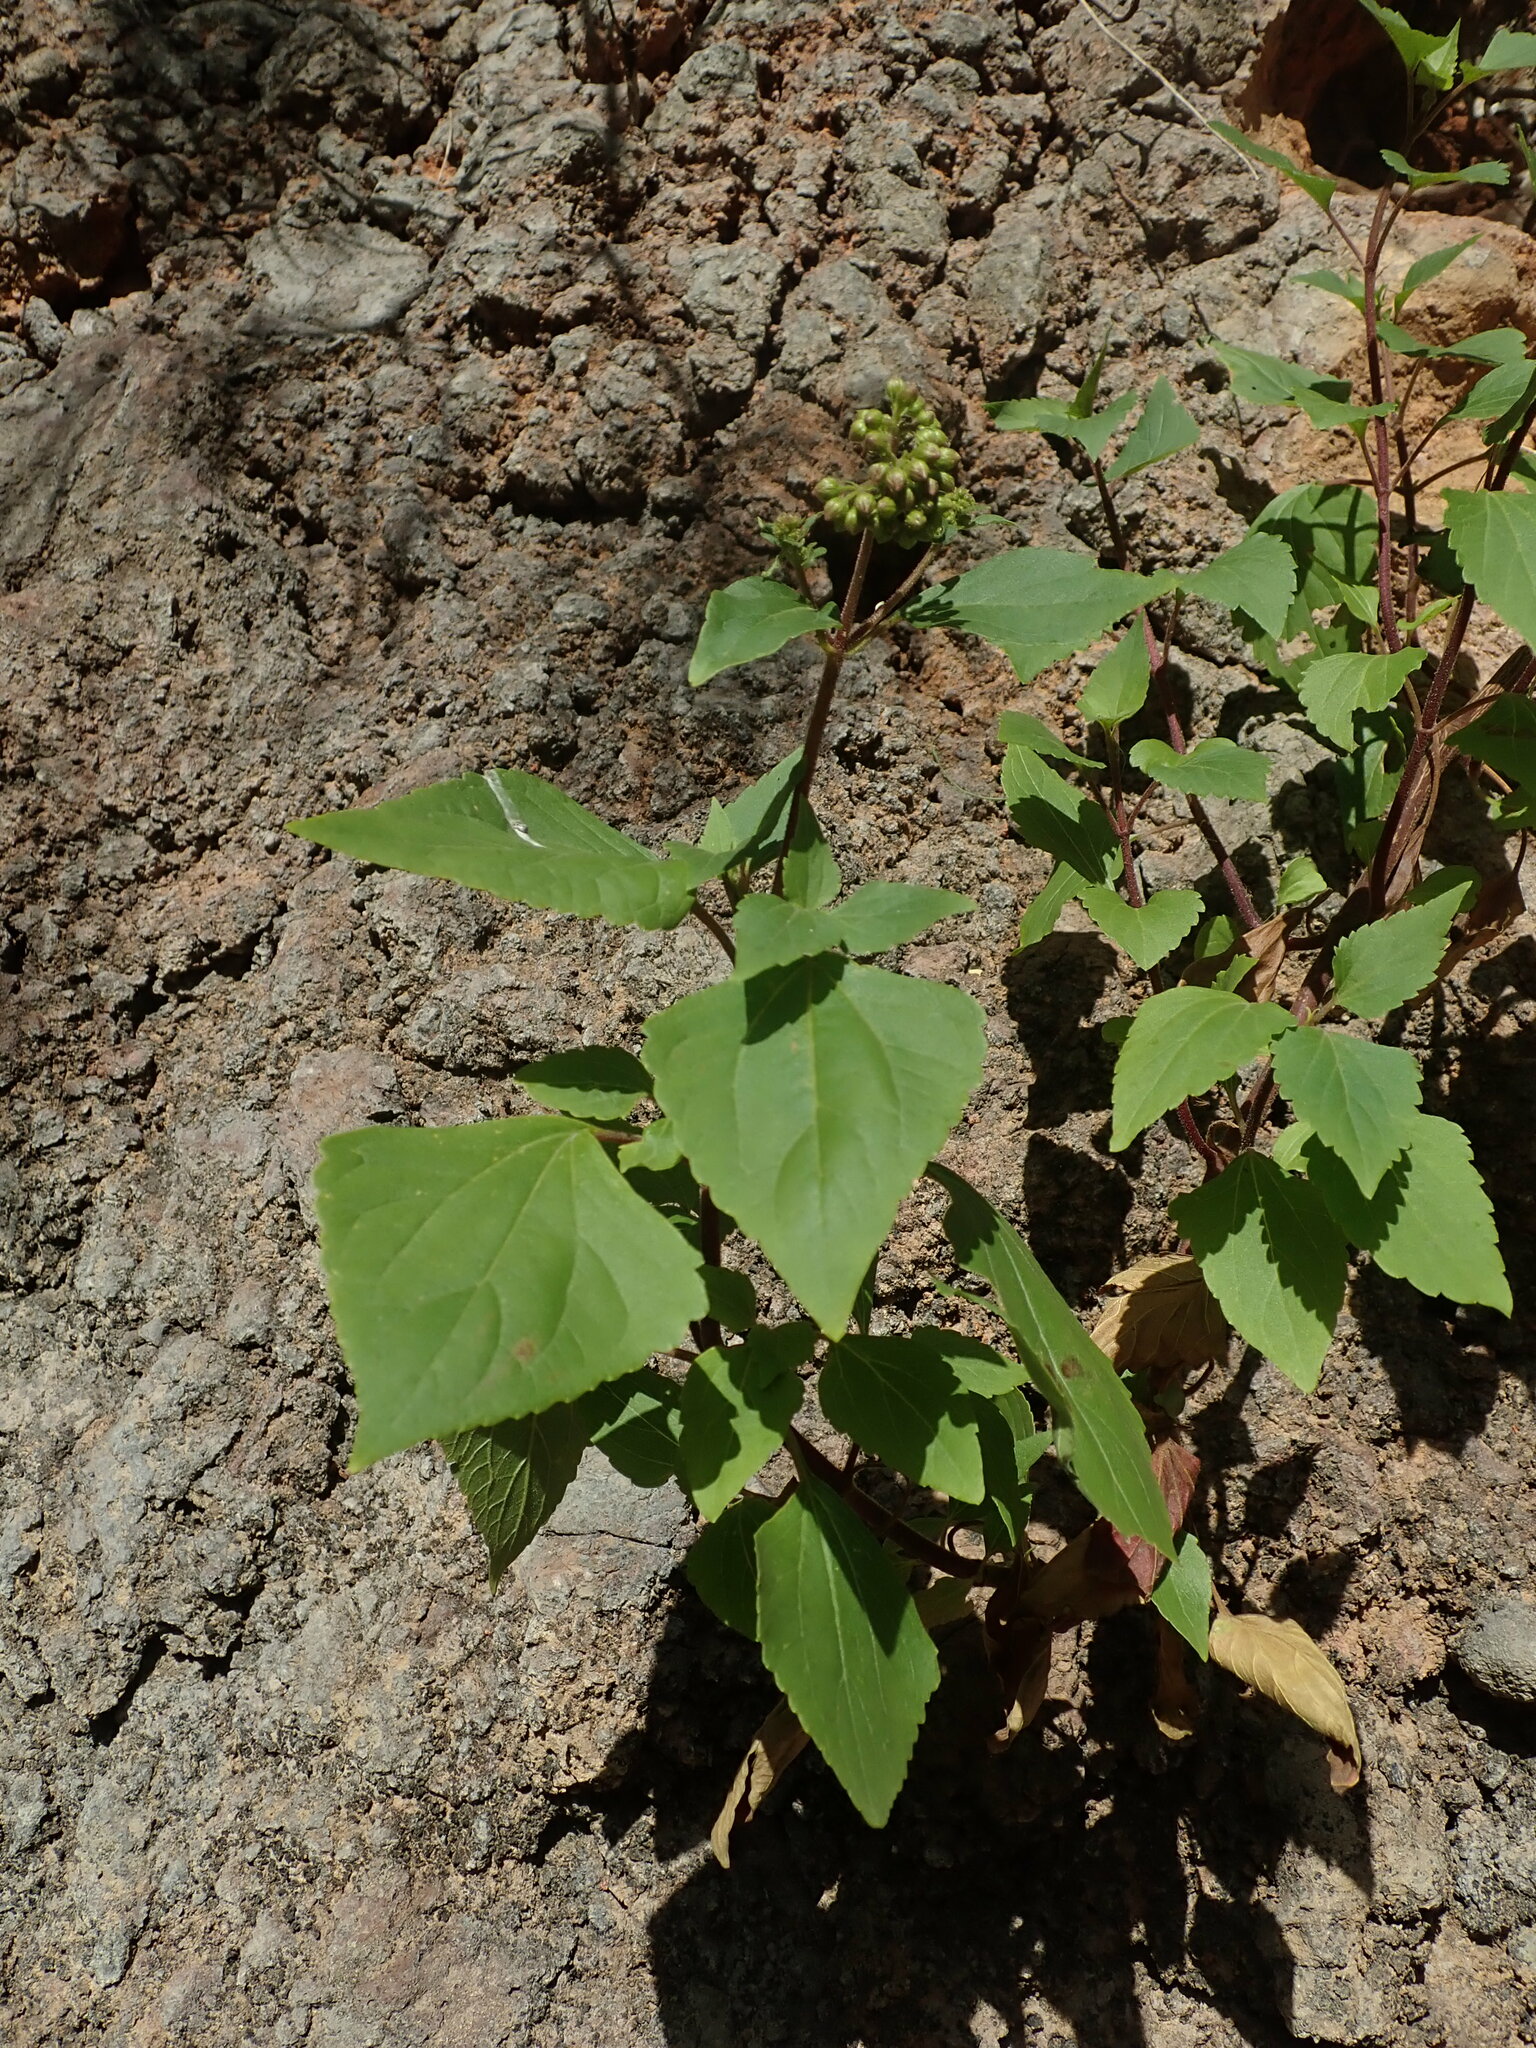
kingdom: Plantae
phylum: Tracheophyta
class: Magnoliopsida
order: Asterales
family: Asteraceae
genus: Ageratina
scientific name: Ageratina adenophora
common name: Sticky snakeroot
